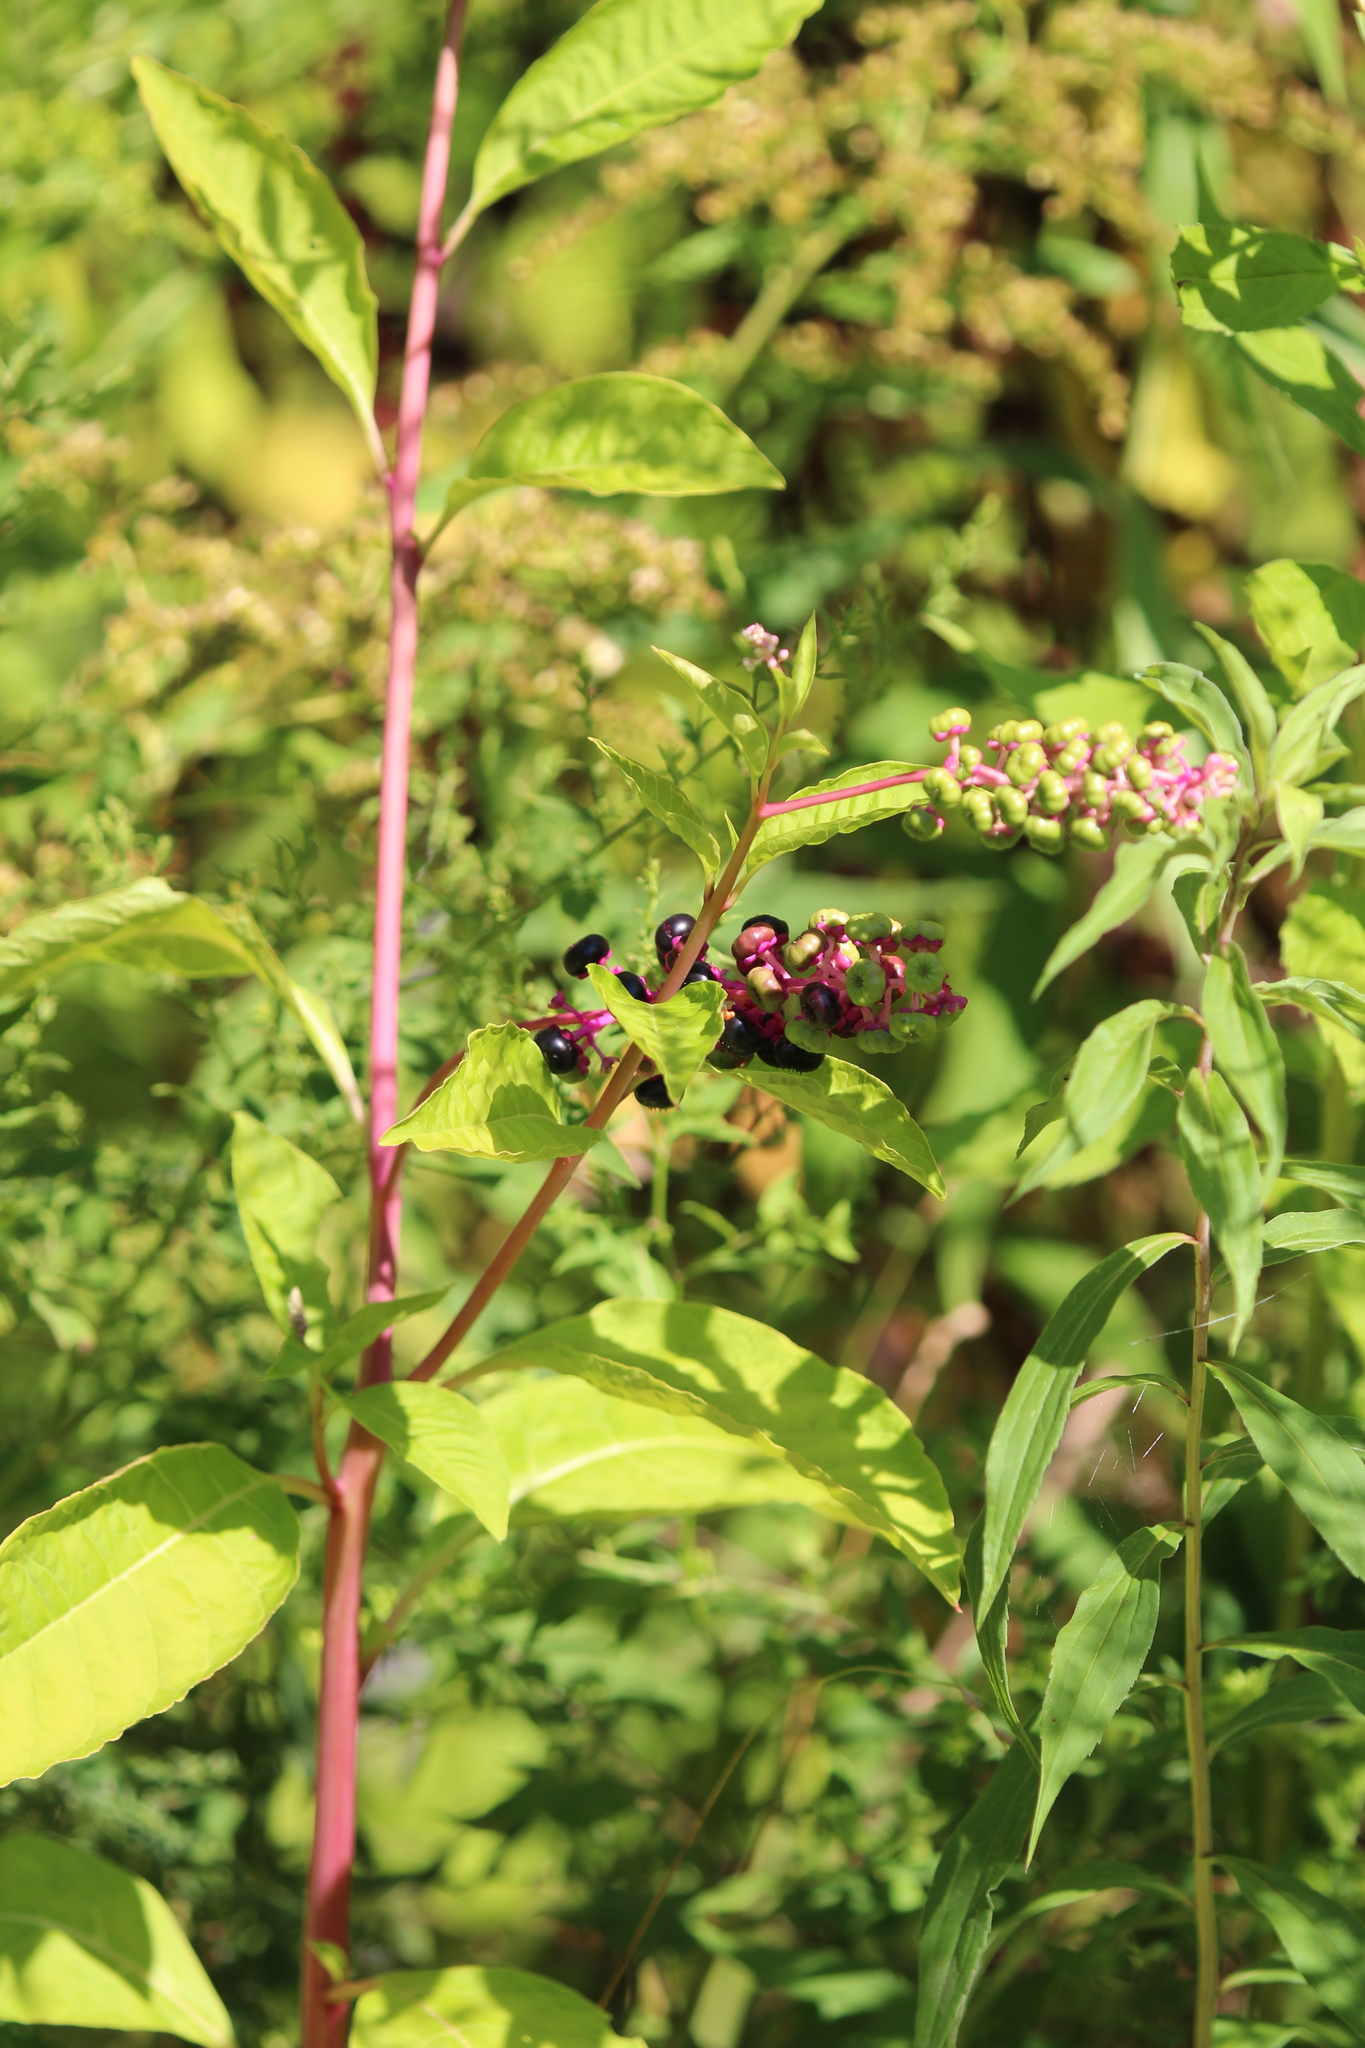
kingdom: Plantae
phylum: Tracheophyta
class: Magnoliopsida
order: Caryophyllales
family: Phytolaccaceae
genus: Phytolacca
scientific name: Phytolacca americana
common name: American pokeweed
